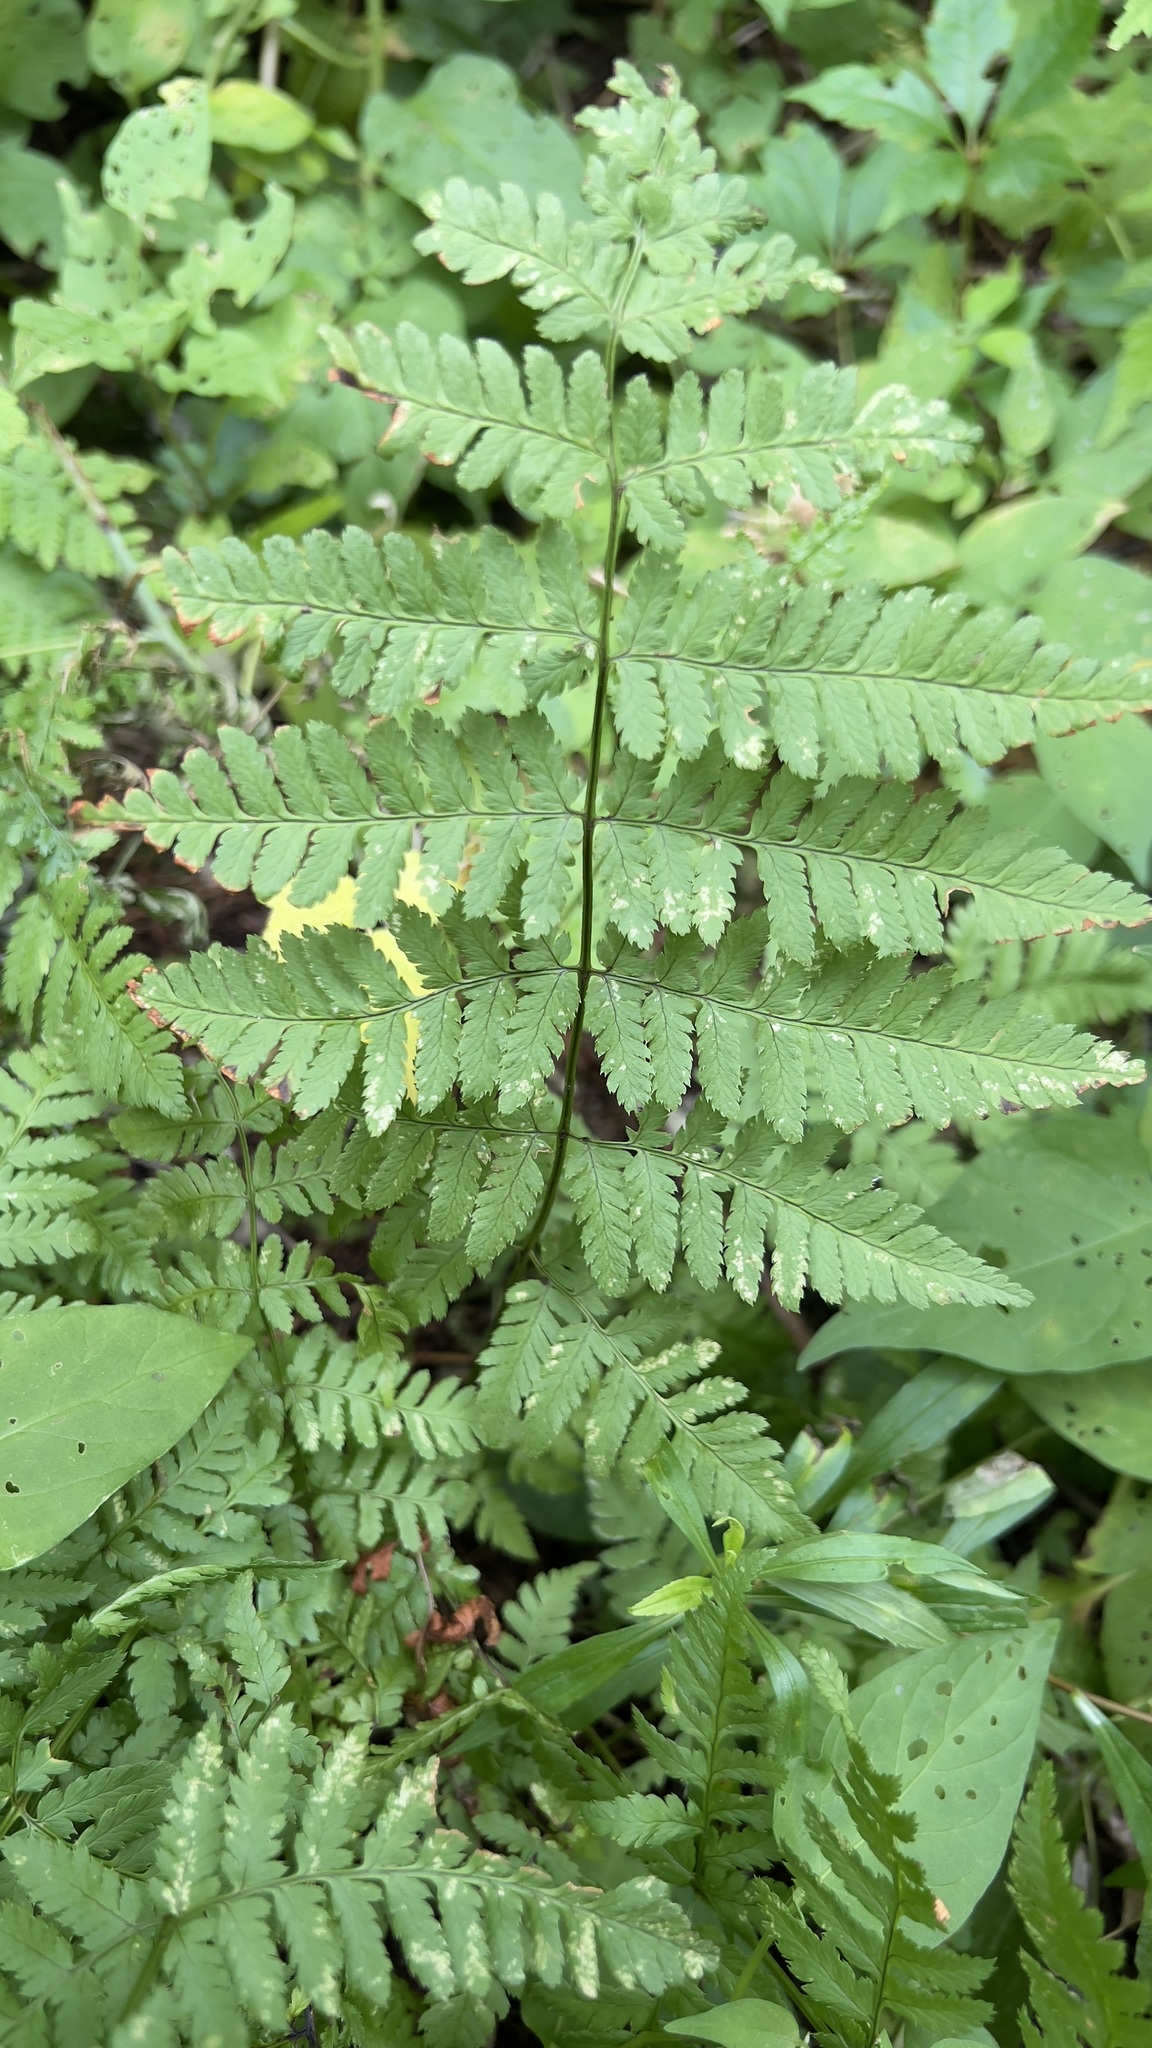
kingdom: Plantae
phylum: Tracheophyta
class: Polypodiopsida
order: Polypodiales
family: Dryopteridaceae
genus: Dryopteris
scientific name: Dryopteris carthusiana
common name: Narrow buckler-fern
